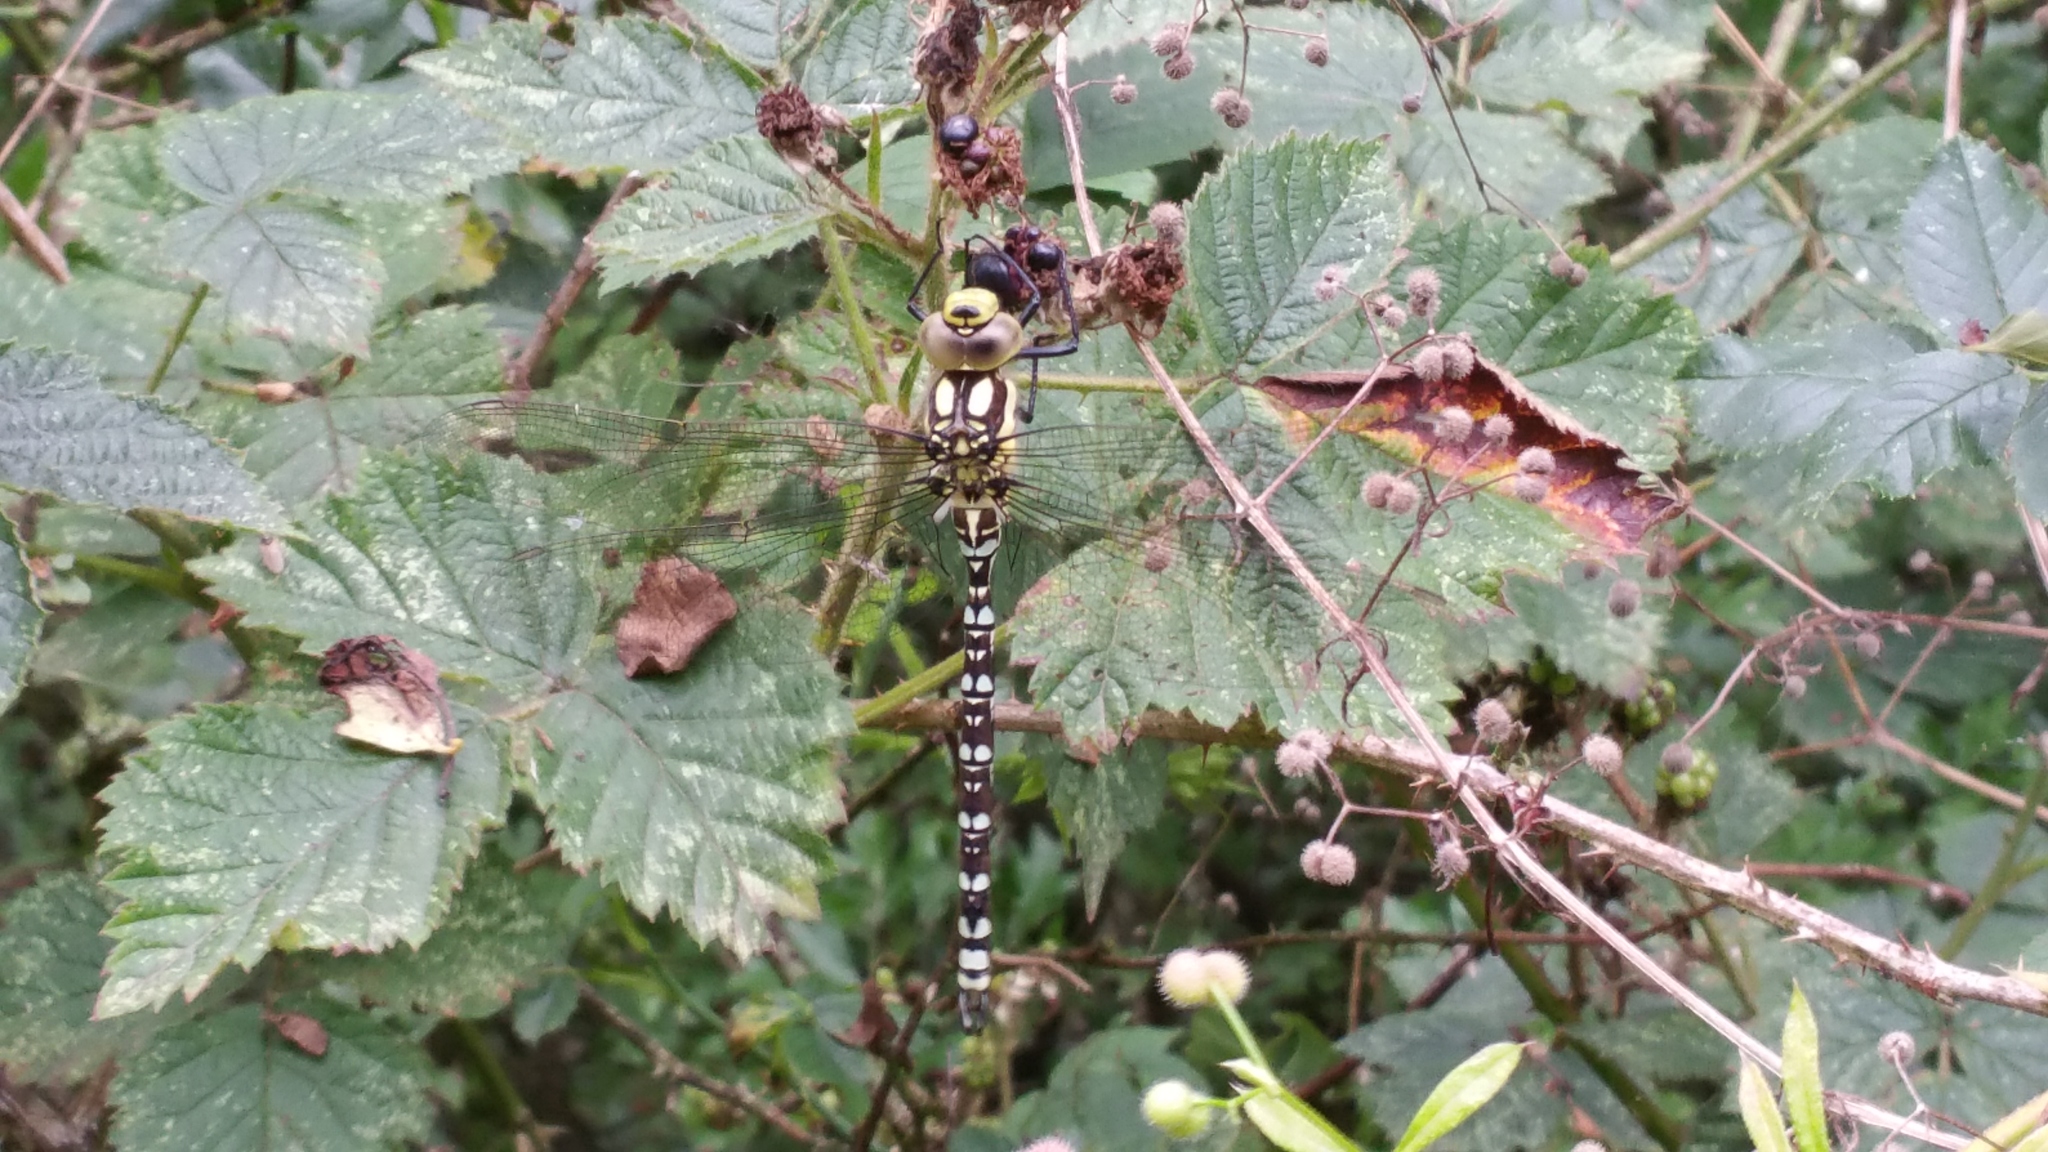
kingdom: Animalia
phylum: Arthropoda
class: Insecta
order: Odonata
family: Aeshnidae
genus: Aeshna
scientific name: Aeshna cyanea
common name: Southern hawker
